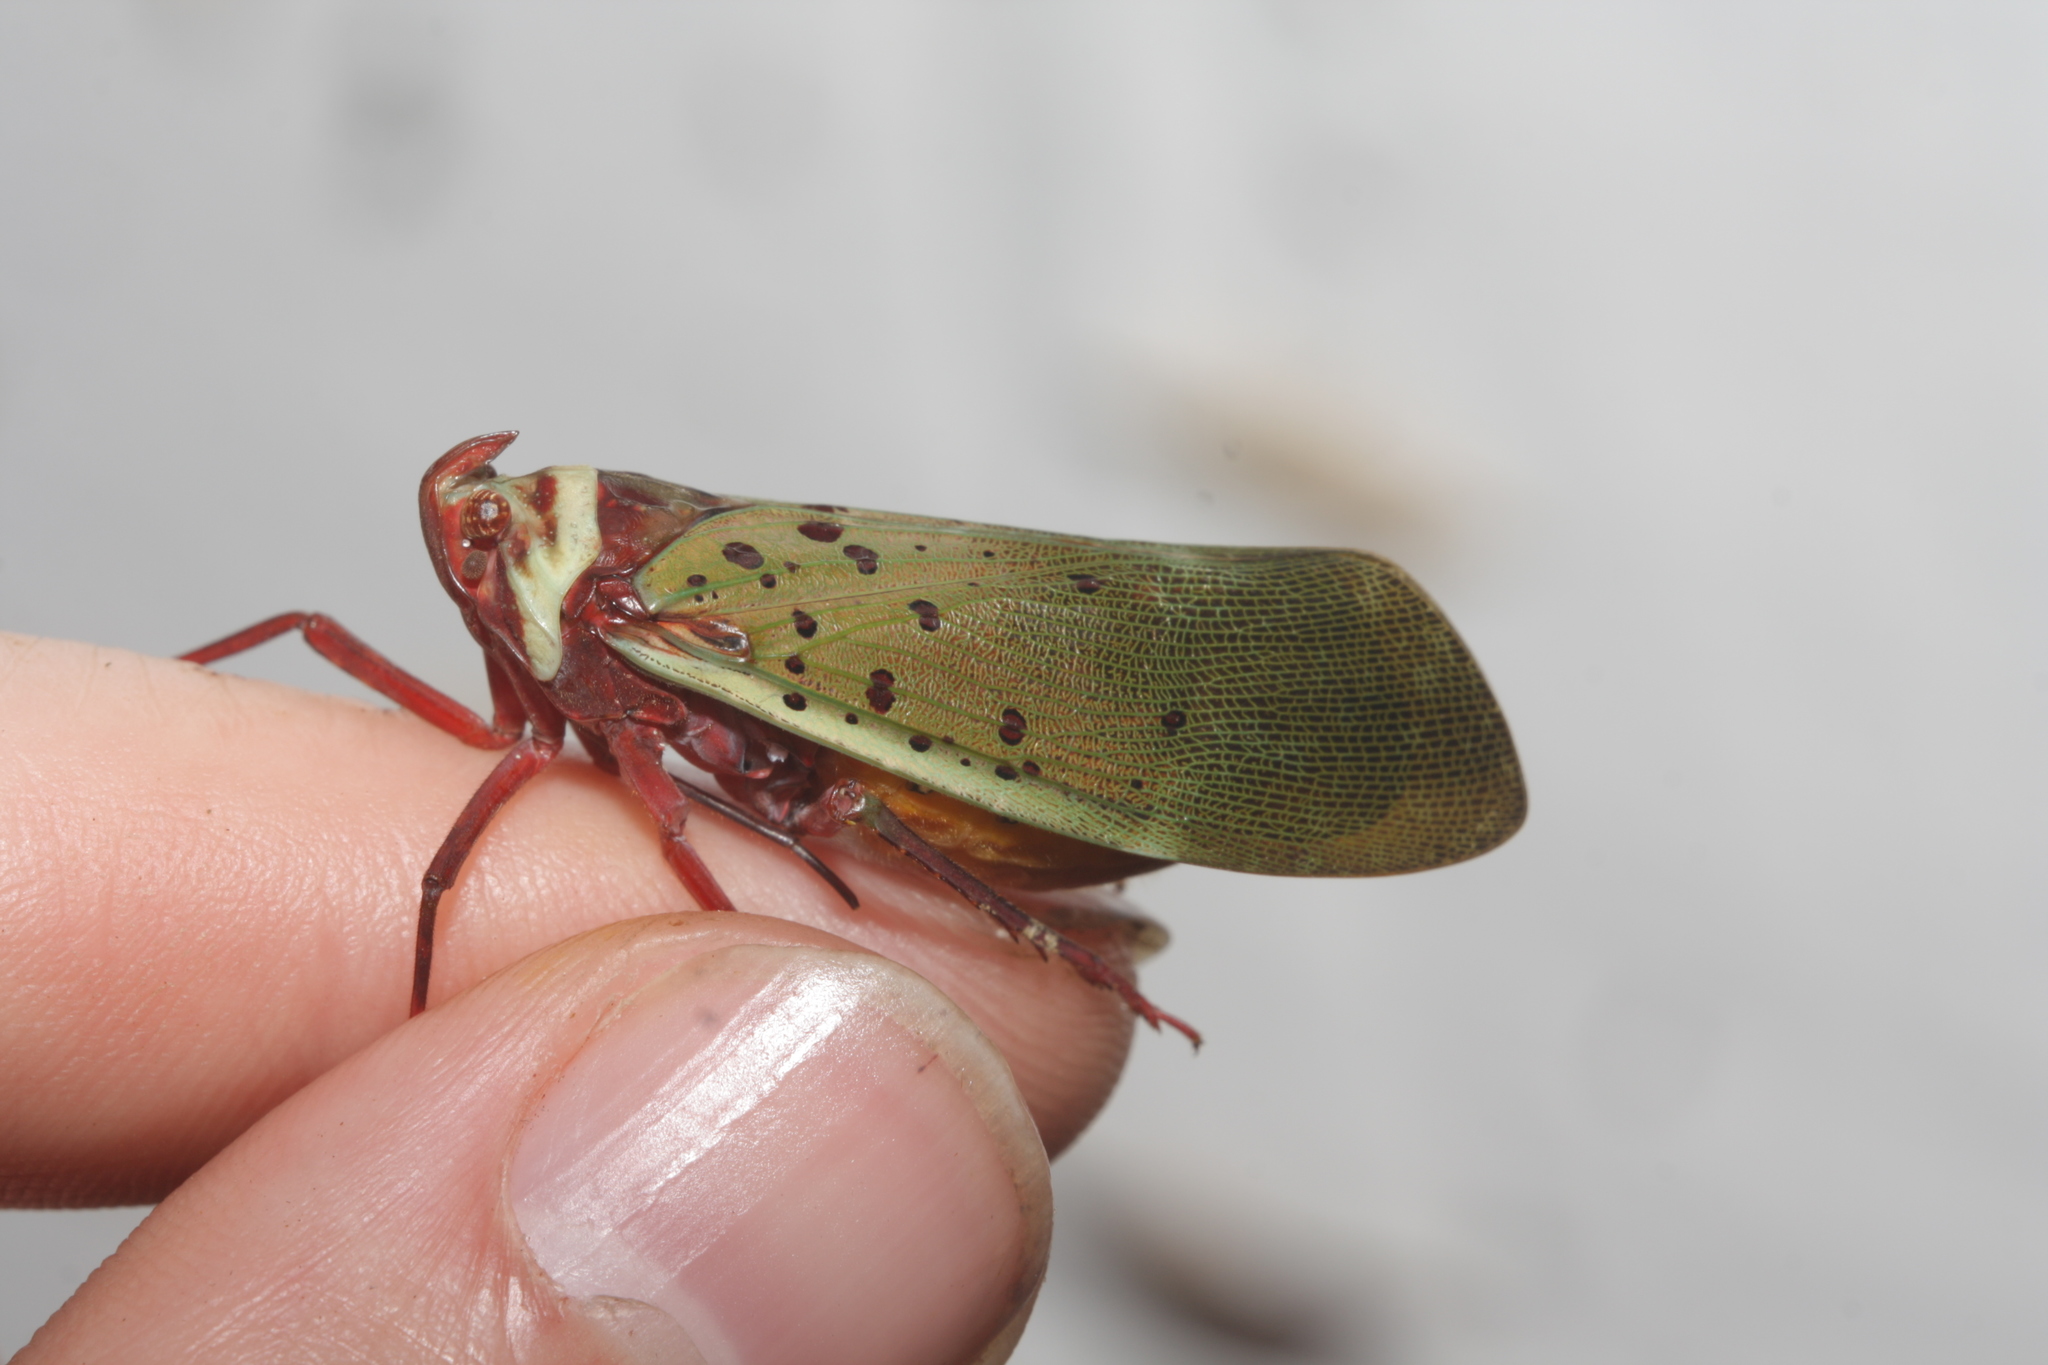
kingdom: Animalia
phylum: Arthropoda
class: Insecta
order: Hemiptera
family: Fulgoridae
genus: Copidocephala
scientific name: Copidocephala guttata
